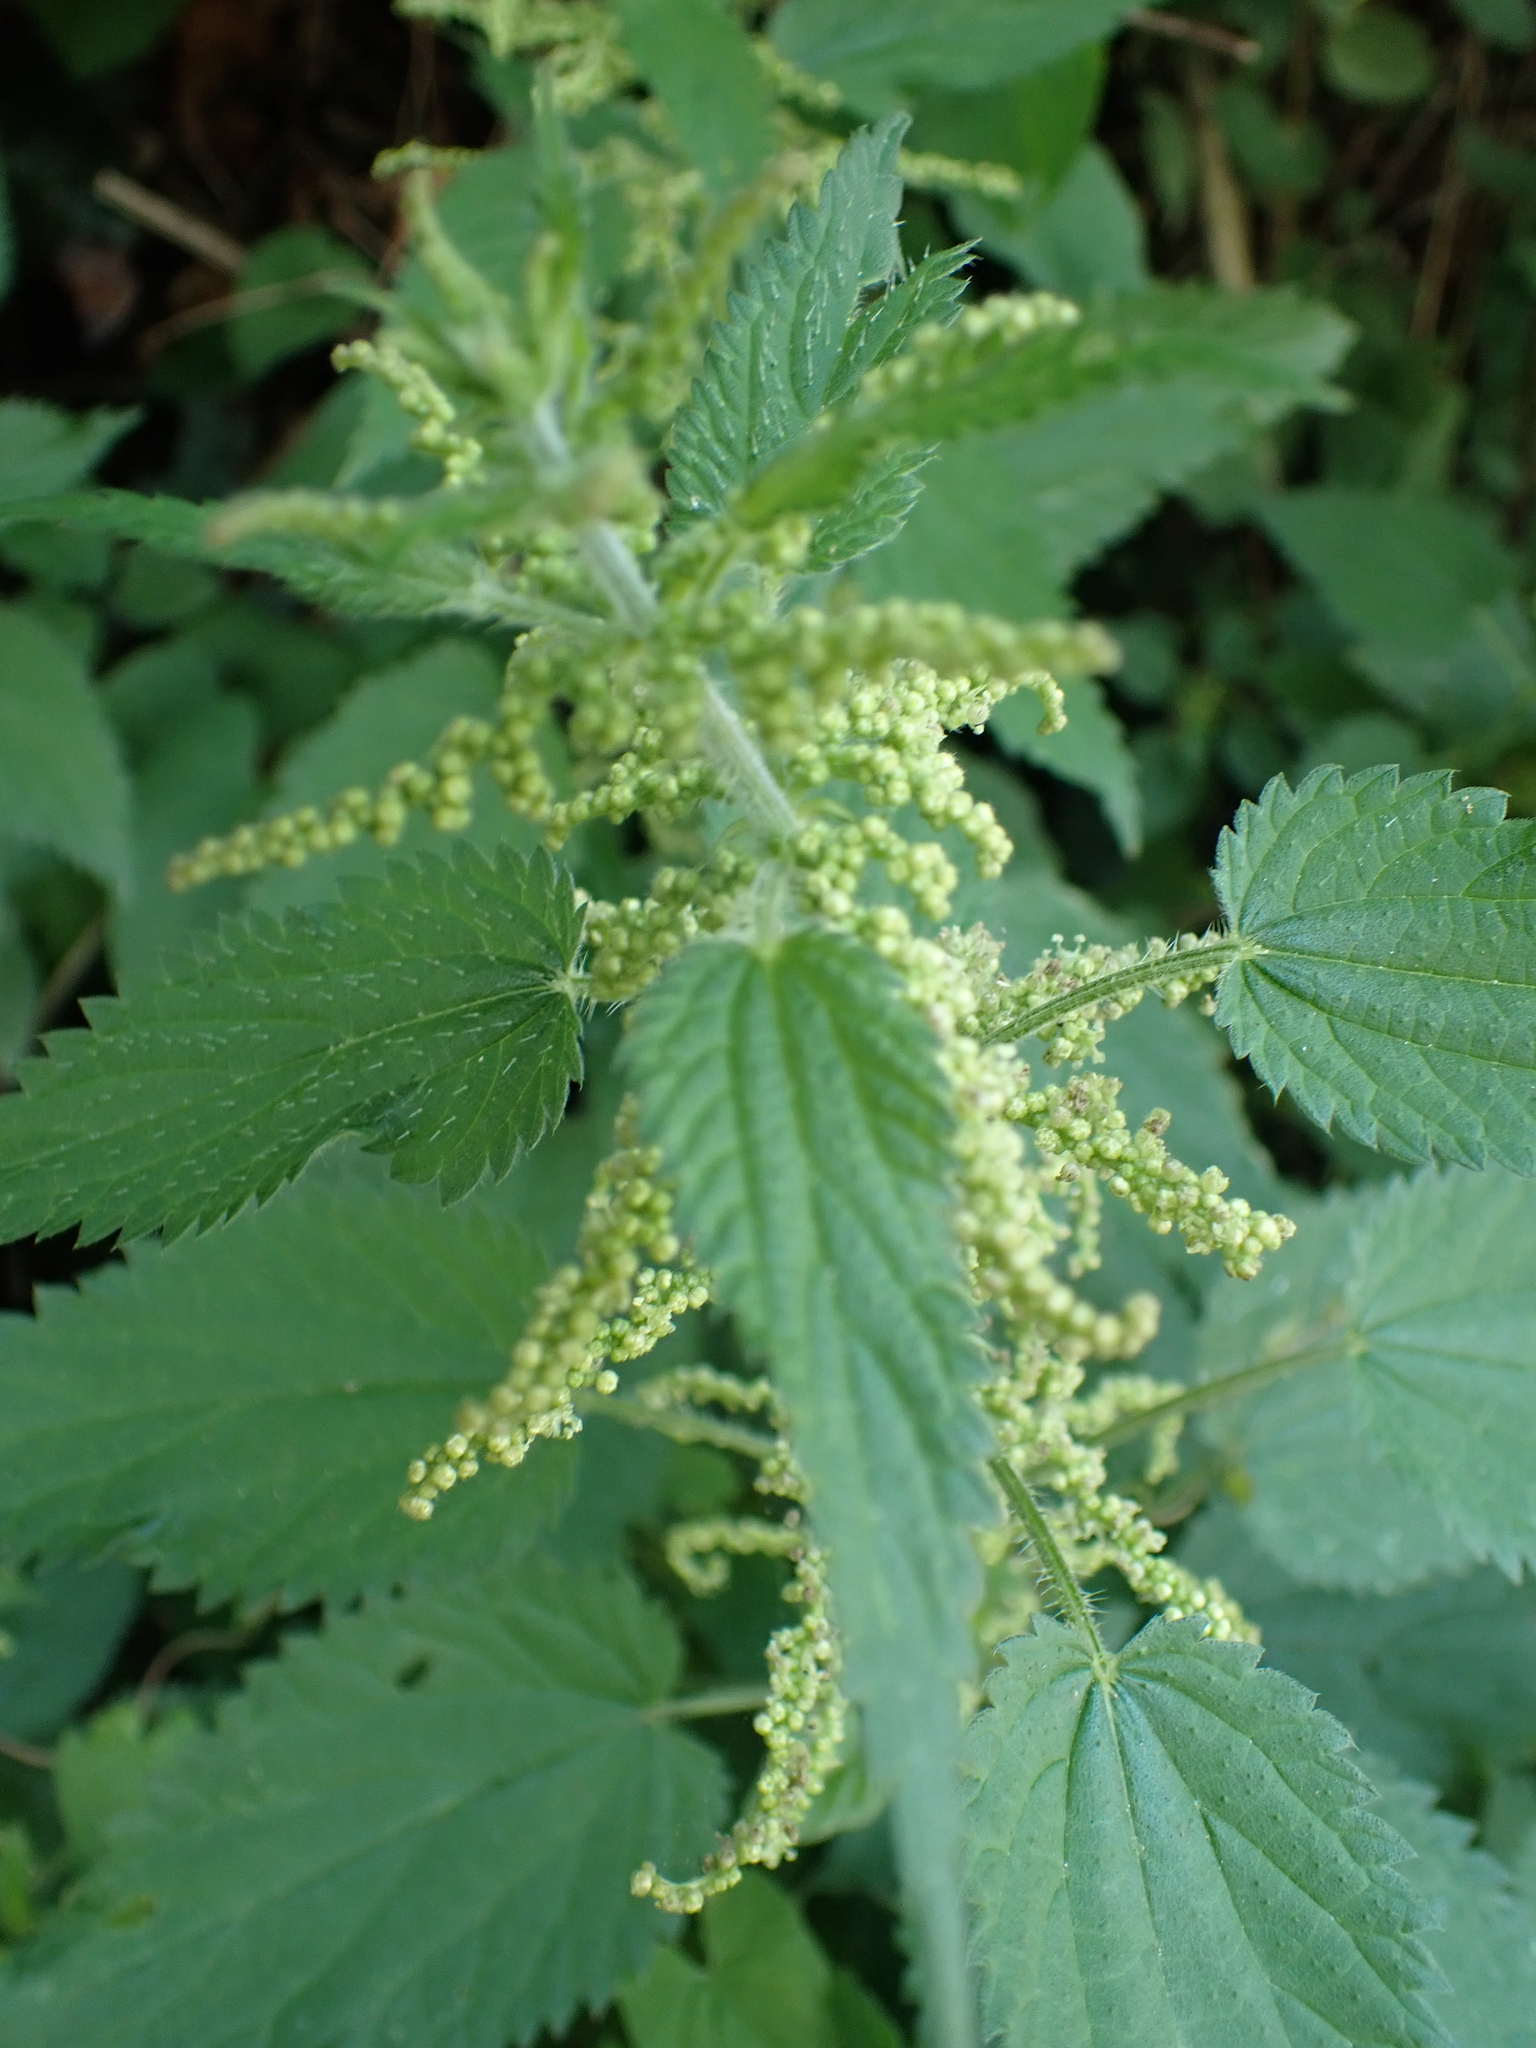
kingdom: Plantae
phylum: Tracheophyta
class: Magnoliopsida
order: Rosales
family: Urticaceae
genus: Urtica
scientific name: Urtica dioica
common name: Common nettle
